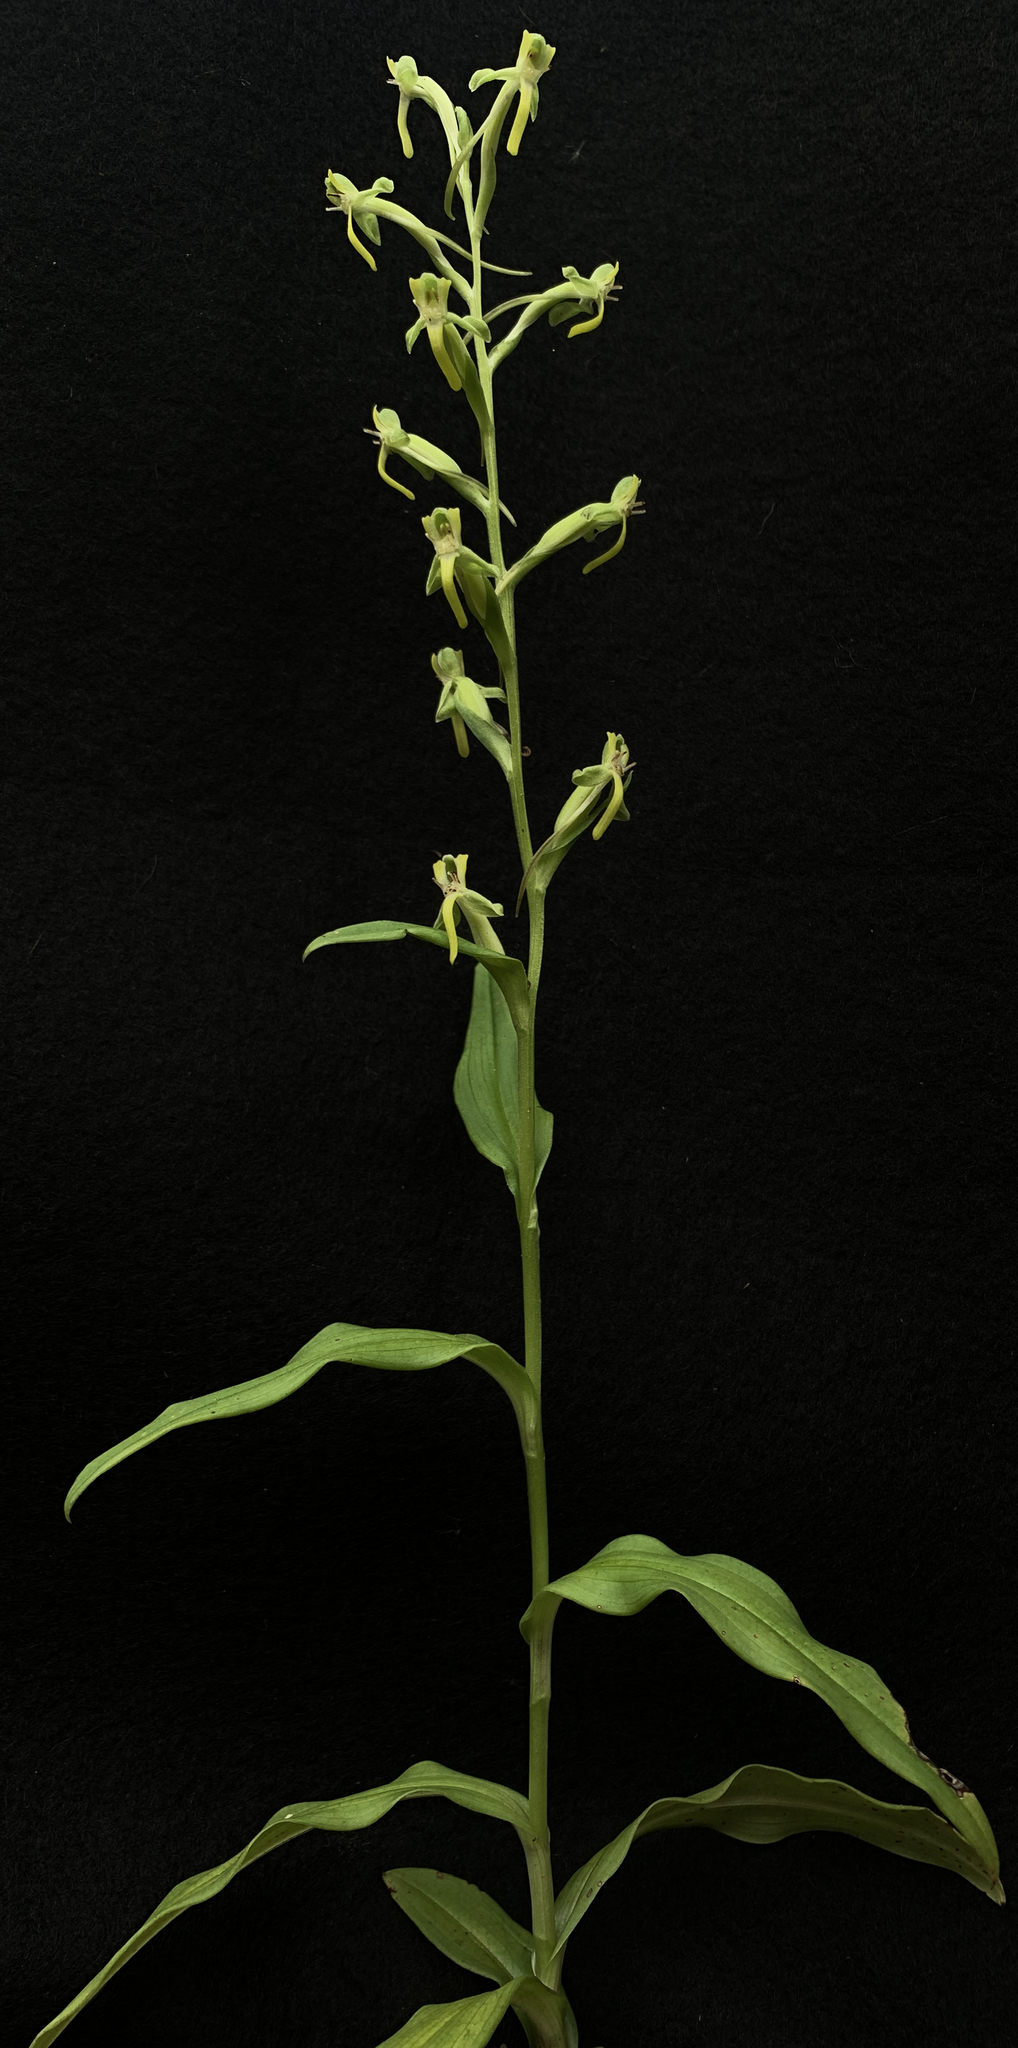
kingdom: Plantae
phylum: Tracheophyta
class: Liliopsida
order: Asparagales
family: Orchidaceae
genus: Habenaria
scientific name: Habenaria floribunda
